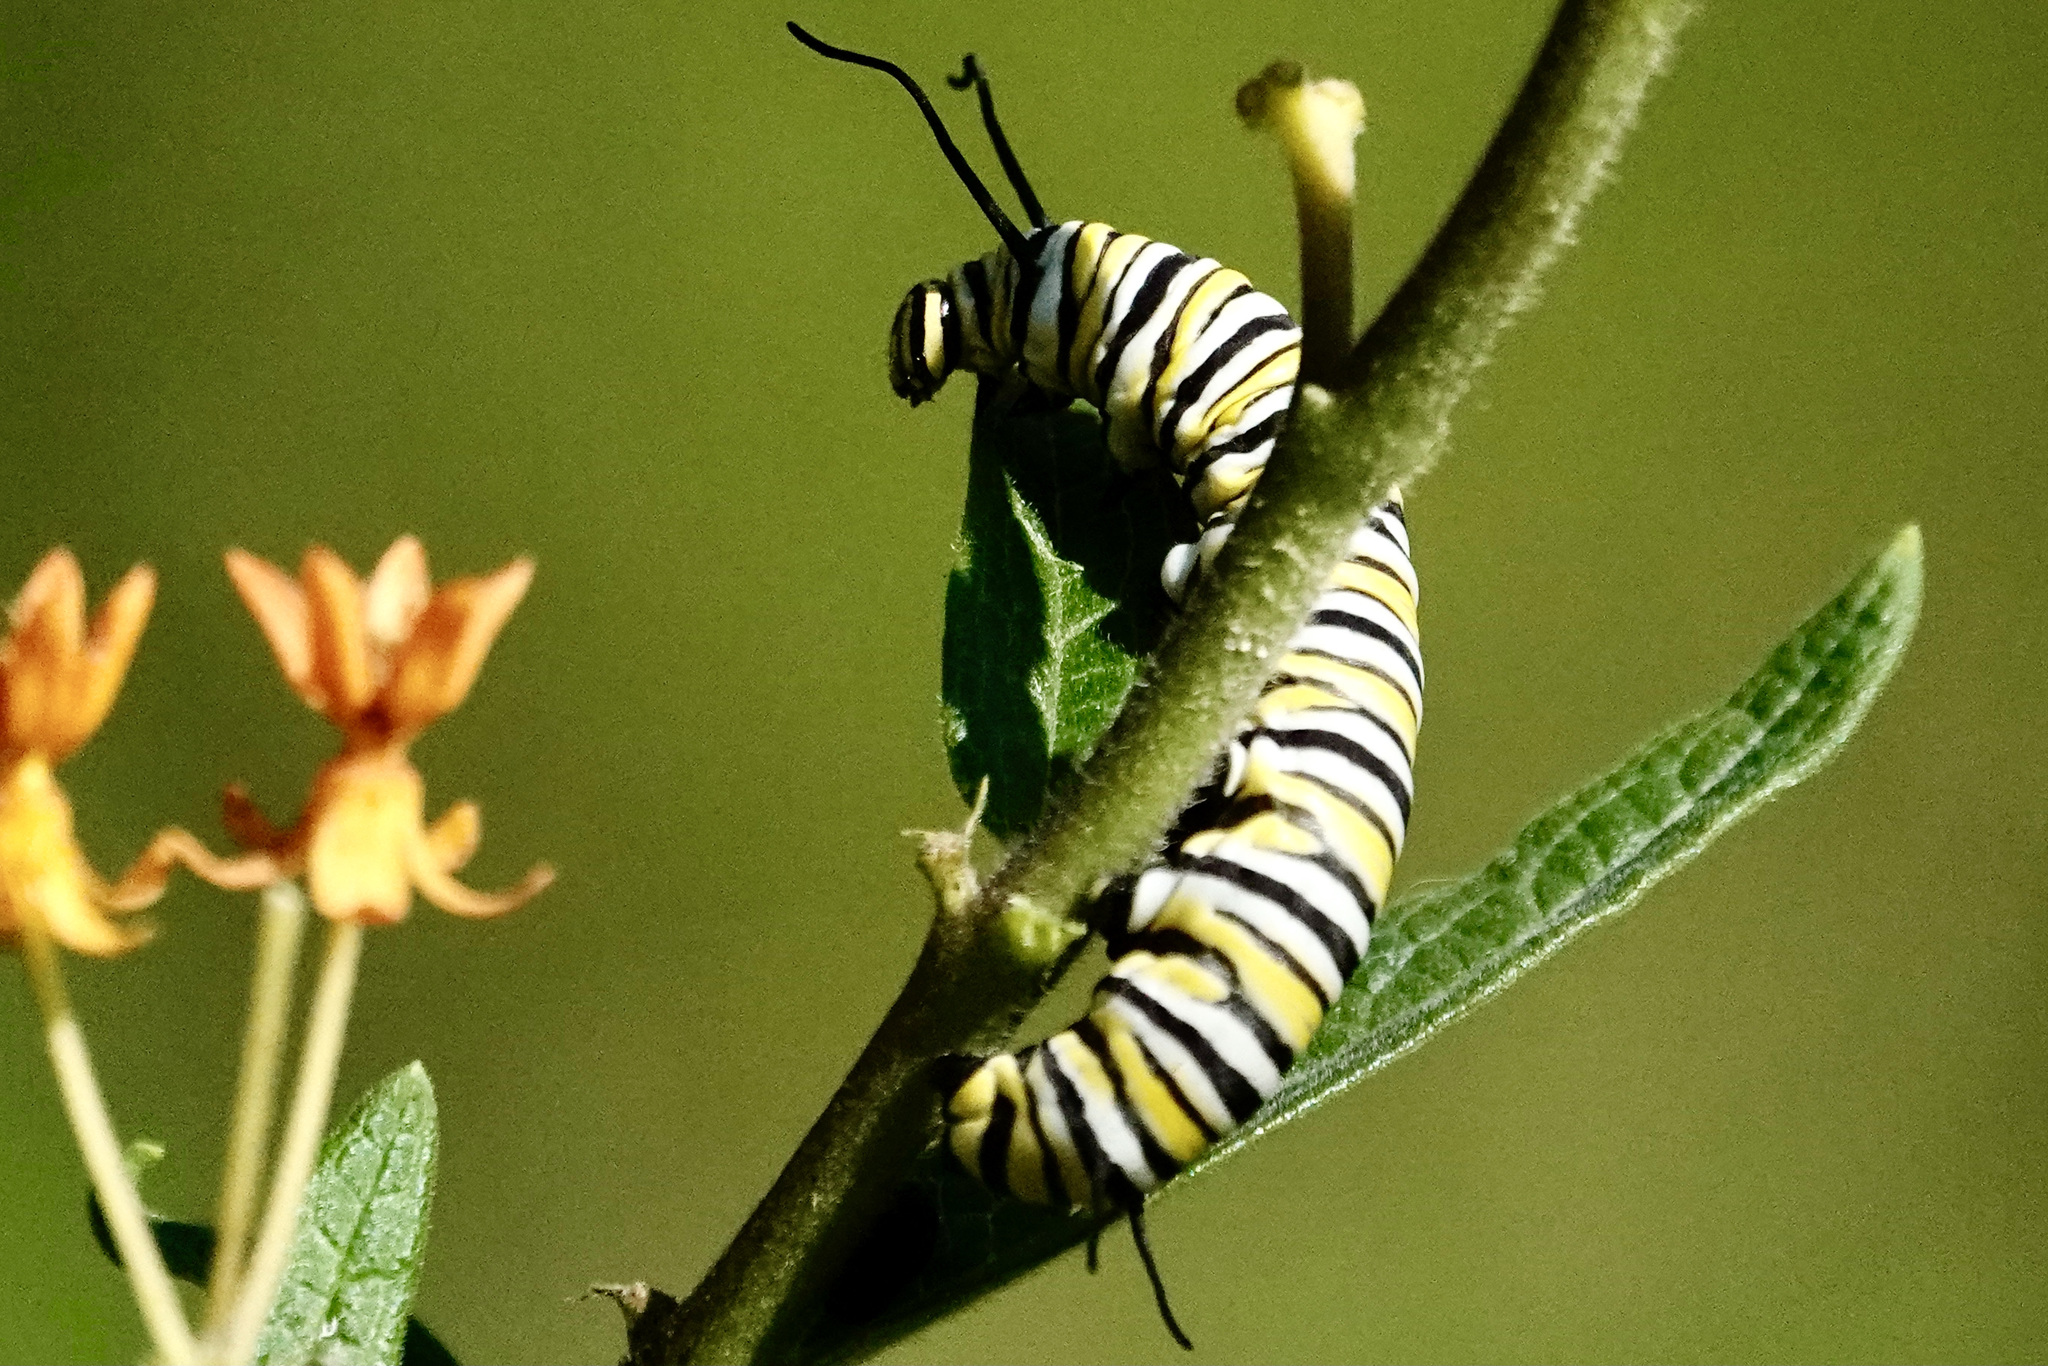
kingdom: Animalia
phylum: Arthropoda
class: Insecta
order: Lepidoptera
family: Nymphalidae
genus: Danaus
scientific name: Danaus plexippus
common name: Monarch
